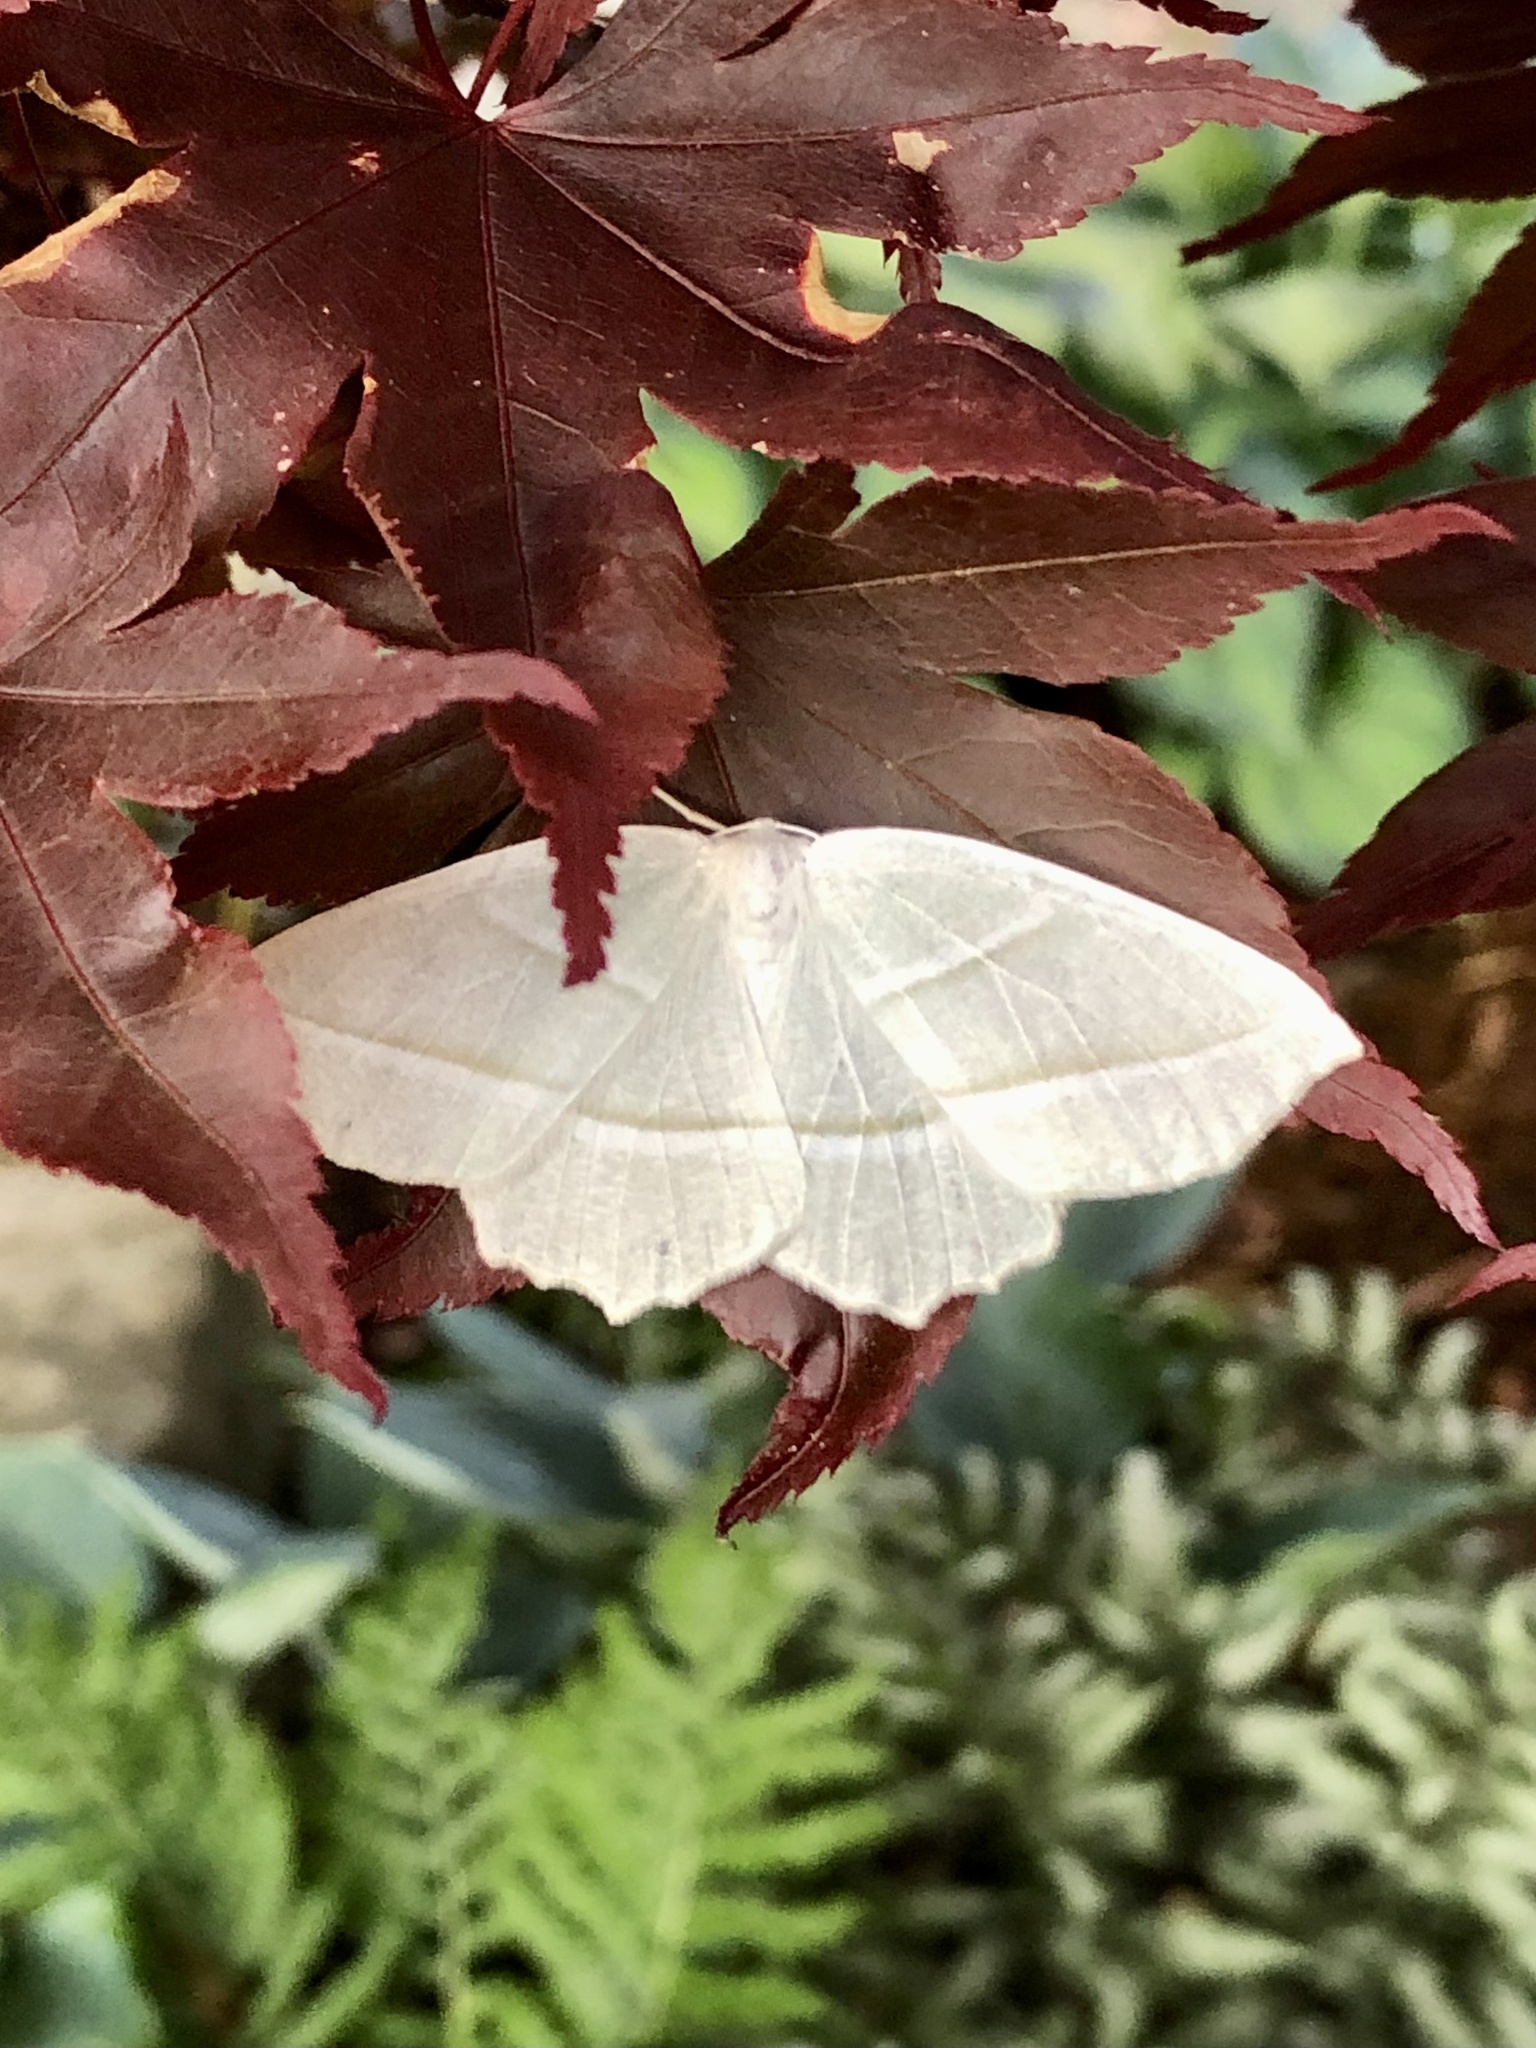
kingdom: Animalia
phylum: Arthropoda
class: Insecta
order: Lepidoptera
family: Geometridae
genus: Campaea
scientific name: Campaea perlata
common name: Fringed looper
